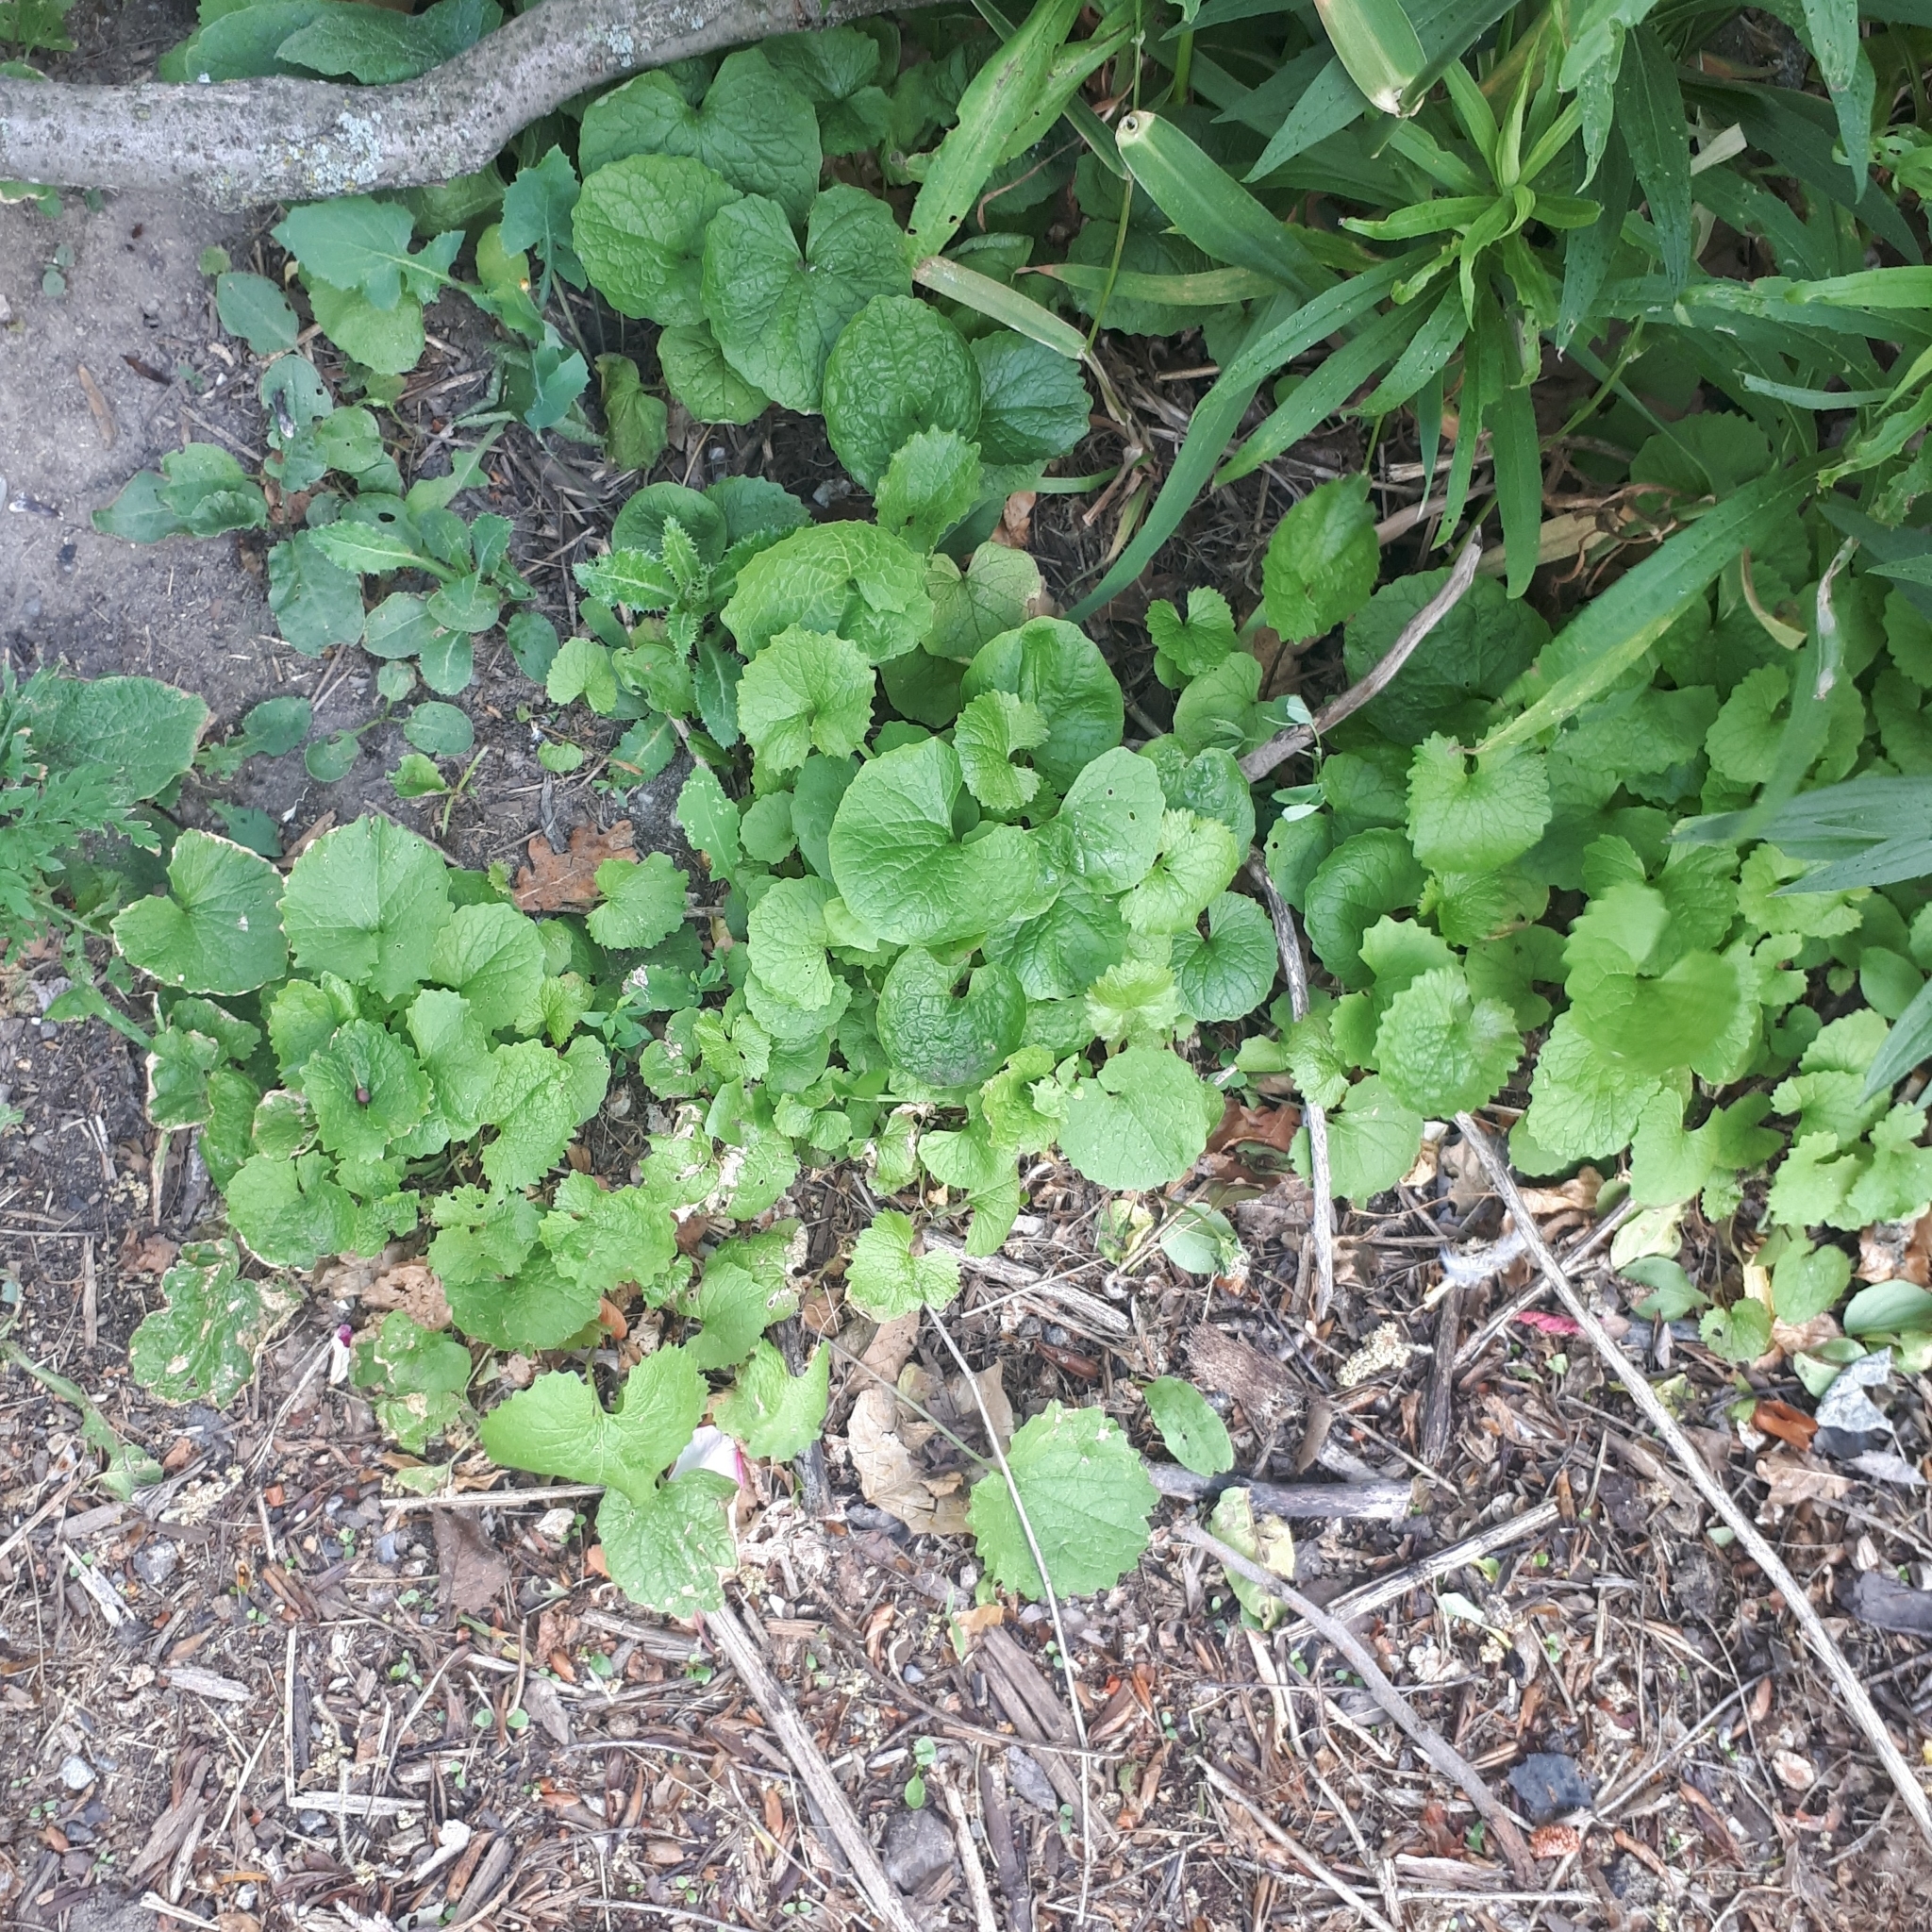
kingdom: Plantae
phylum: Tracheophyta
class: Magnoliopsida
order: Brassicales
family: Brassicaceae
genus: Alliaria
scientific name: Alliaria petiolata
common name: Garlic mustard
